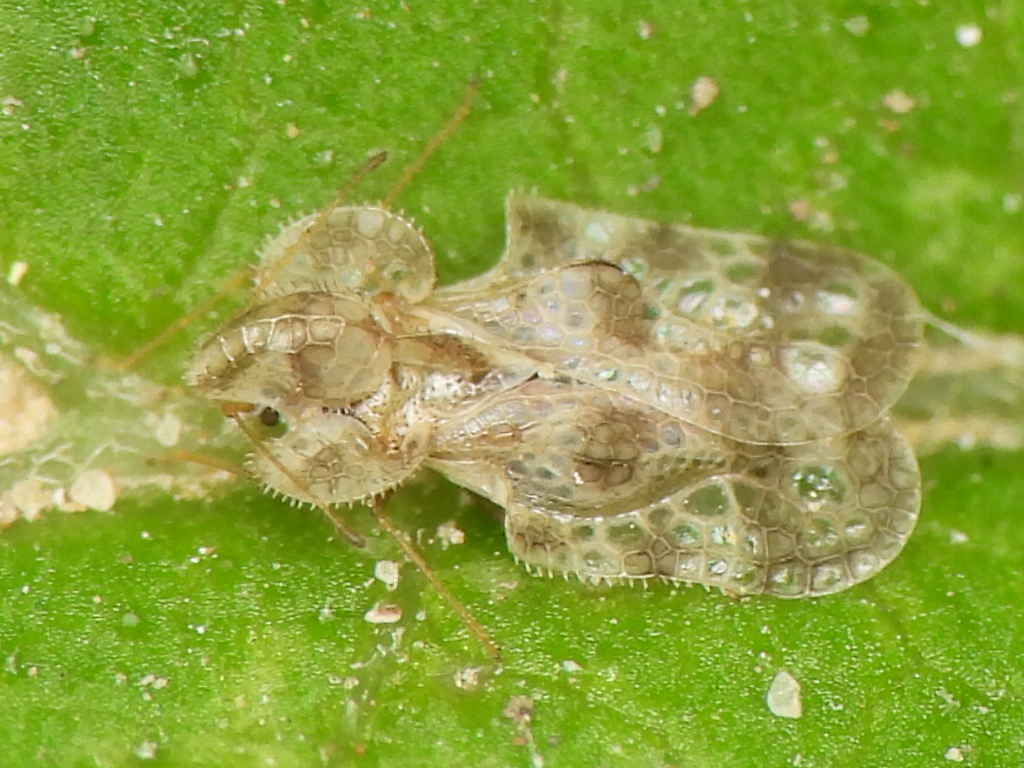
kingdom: Animalia
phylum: Arthropoda
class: Insecta
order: Hemiptera
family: Tingidae
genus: Corythucha
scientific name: Corythucha arcuata
